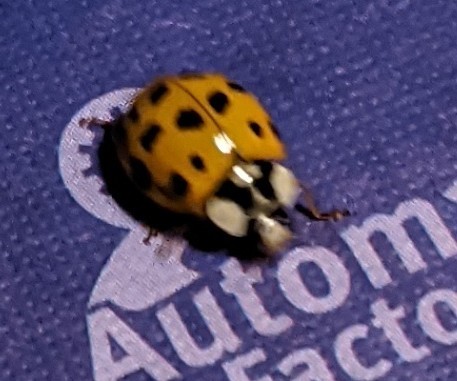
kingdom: Animalia
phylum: Arthropoda
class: Insecta
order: Coleoptera
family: Coccinellidae
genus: Harmonia
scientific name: Harmonia axyridis
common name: Harlequin ladybird
